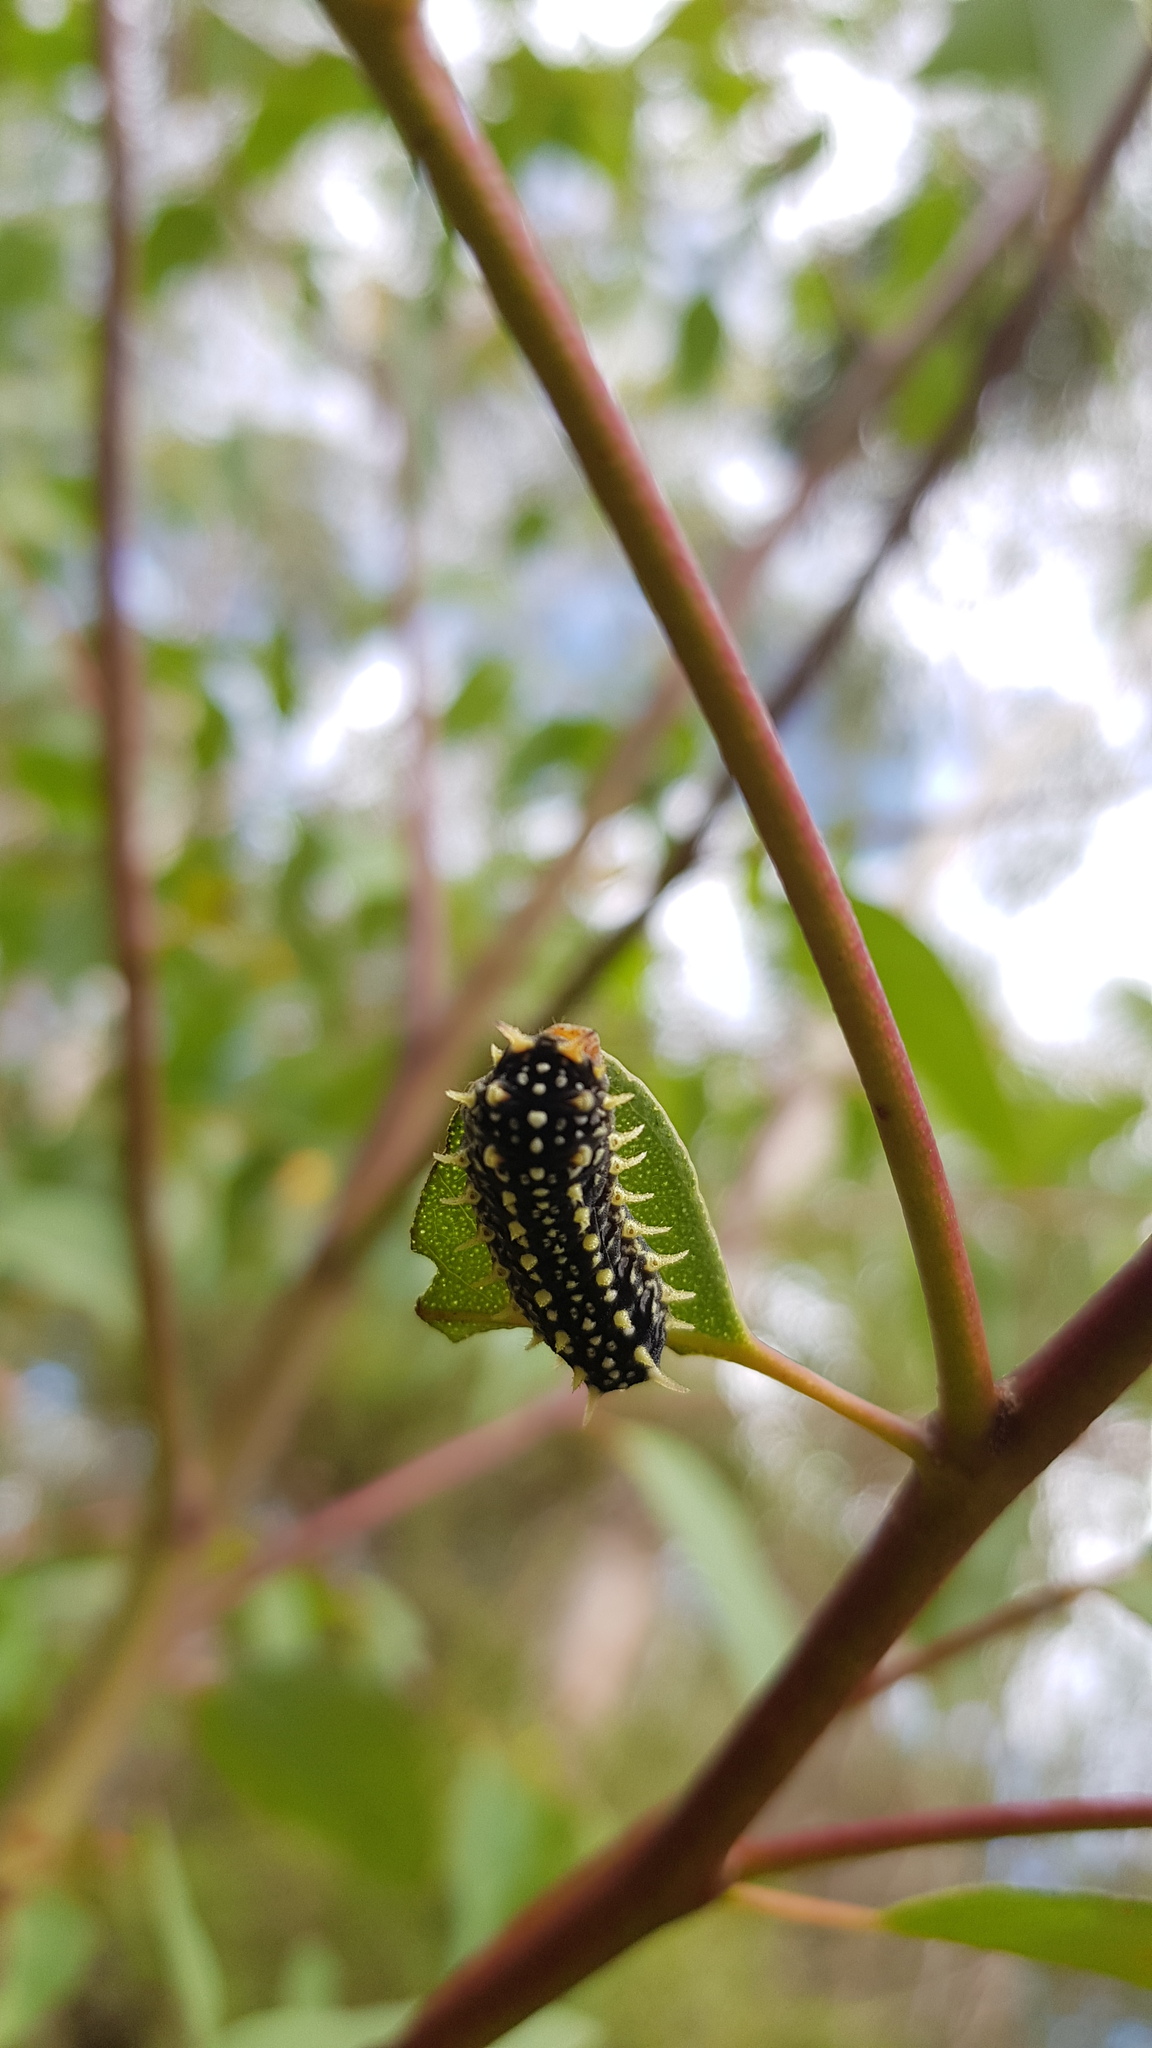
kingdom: Animalia
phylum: Arthropoda
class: Insecta
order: Lepidoptera
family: Limacodidae
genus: Doratifera
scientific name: Doratifera casta
